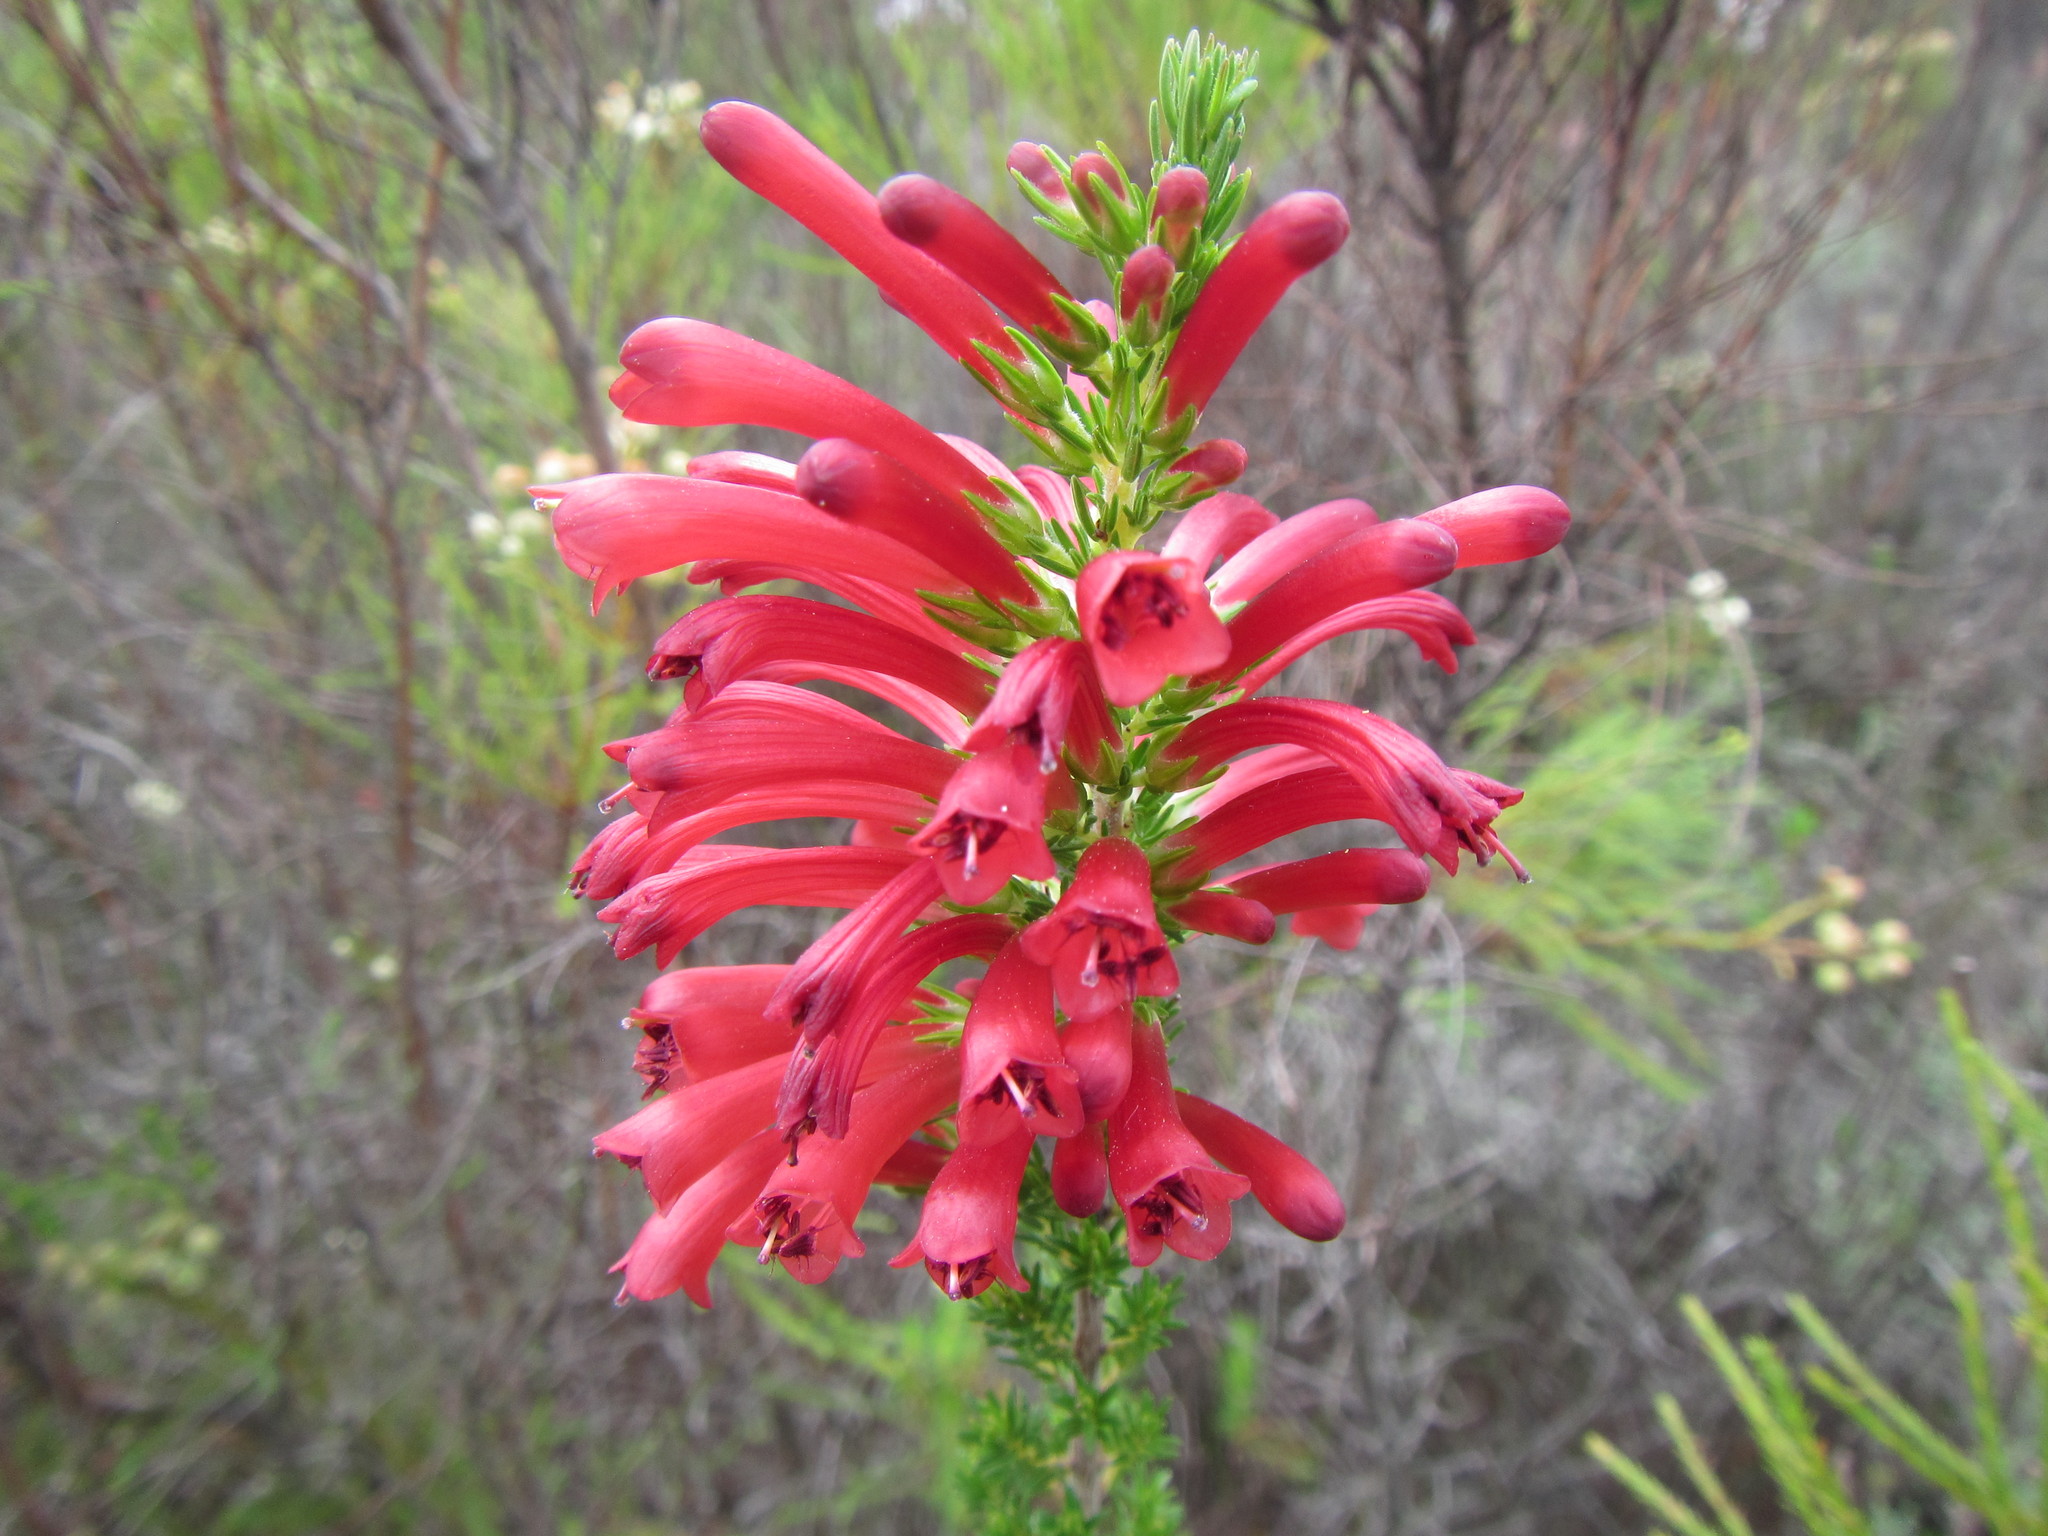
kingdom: Plantae
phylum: Tracheophyta
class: Magnoliopsida
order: Ericales
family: Ericaceae
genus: Erica
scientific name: Erica cruenta
